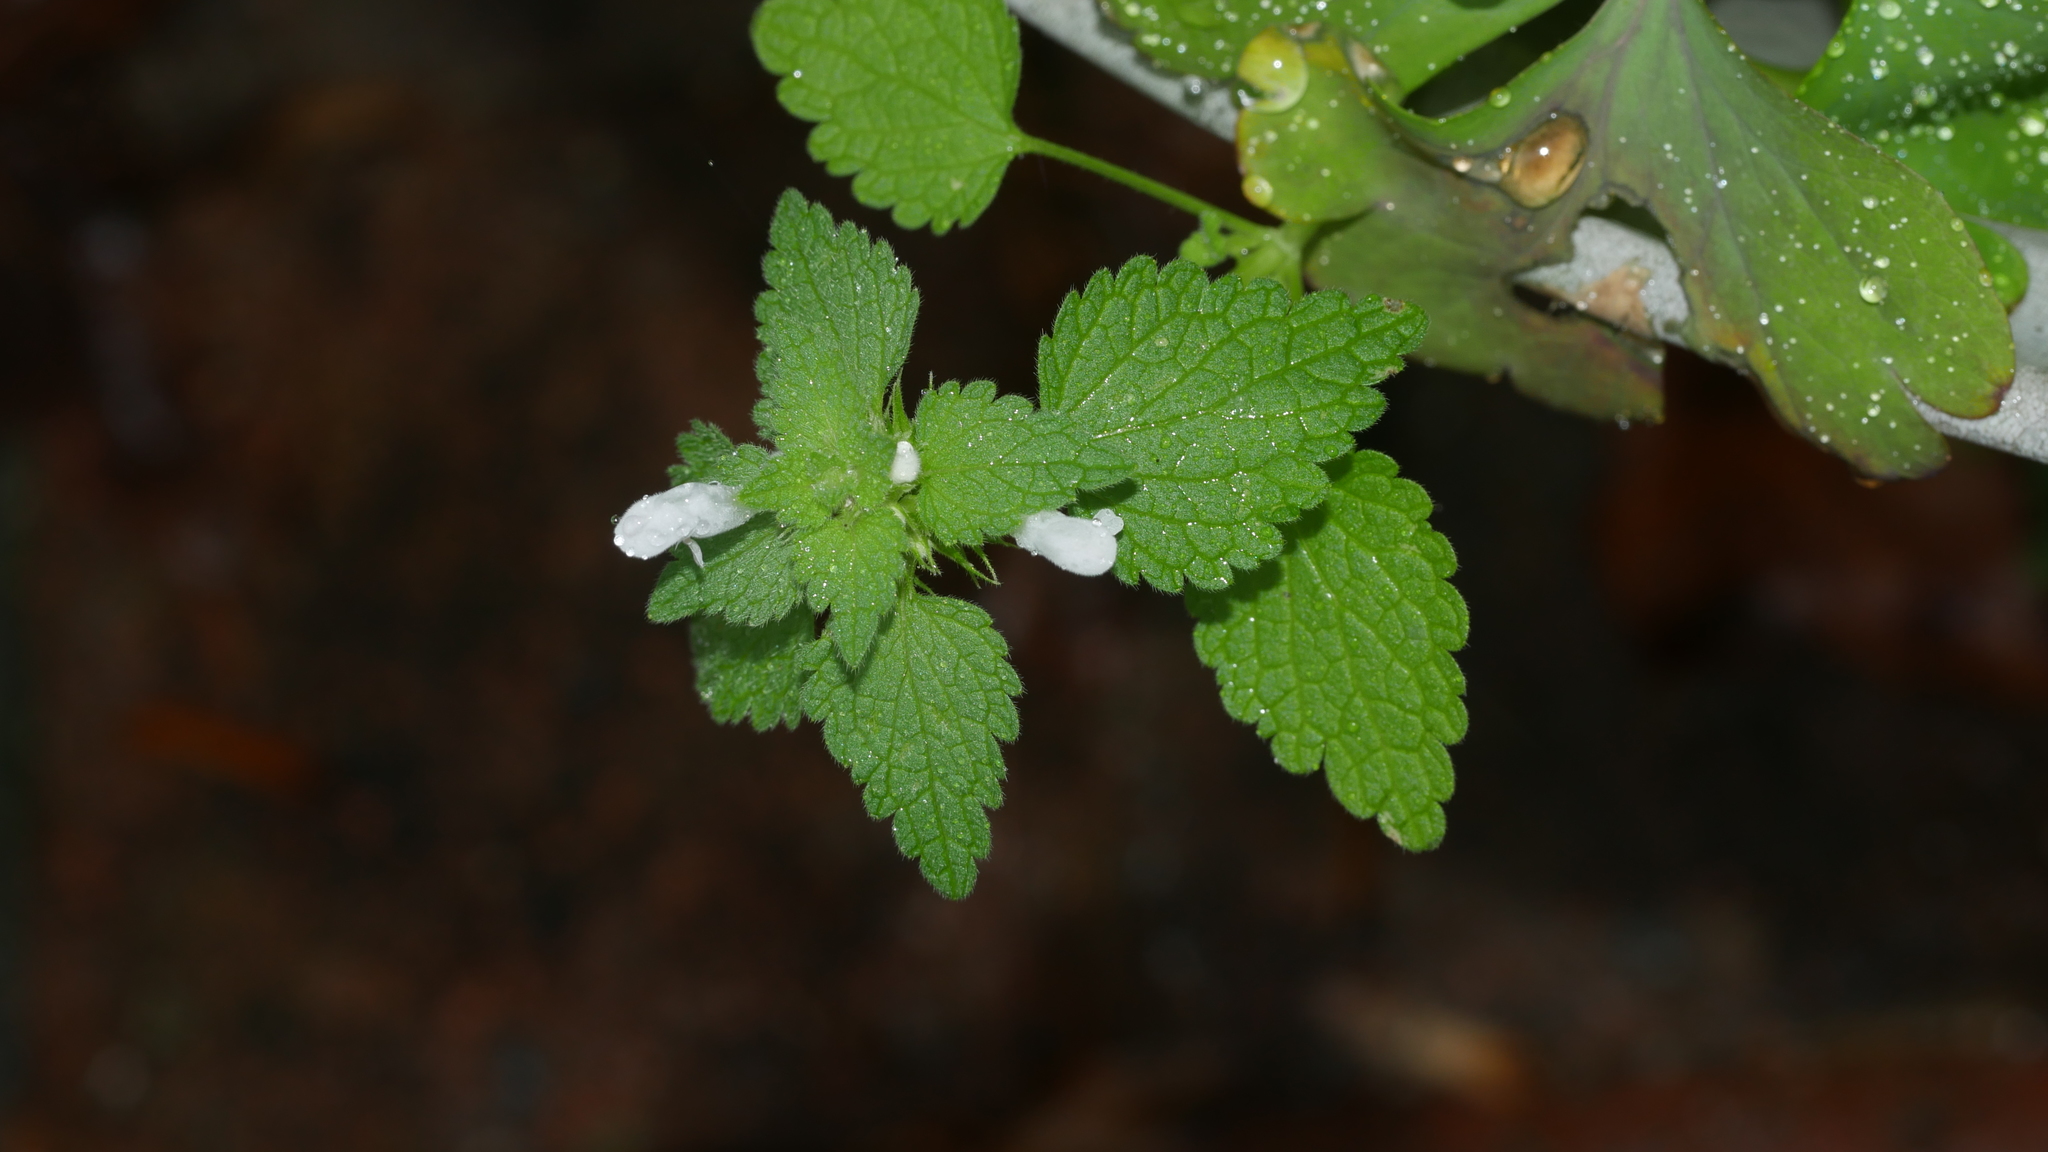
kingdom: Plantae
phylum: Tracheophyta
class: Magnoliopsida
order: Lamiales
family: Lamiaceae
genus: Lamium
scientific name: Lamium purpureum
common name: Red dead-nettle
